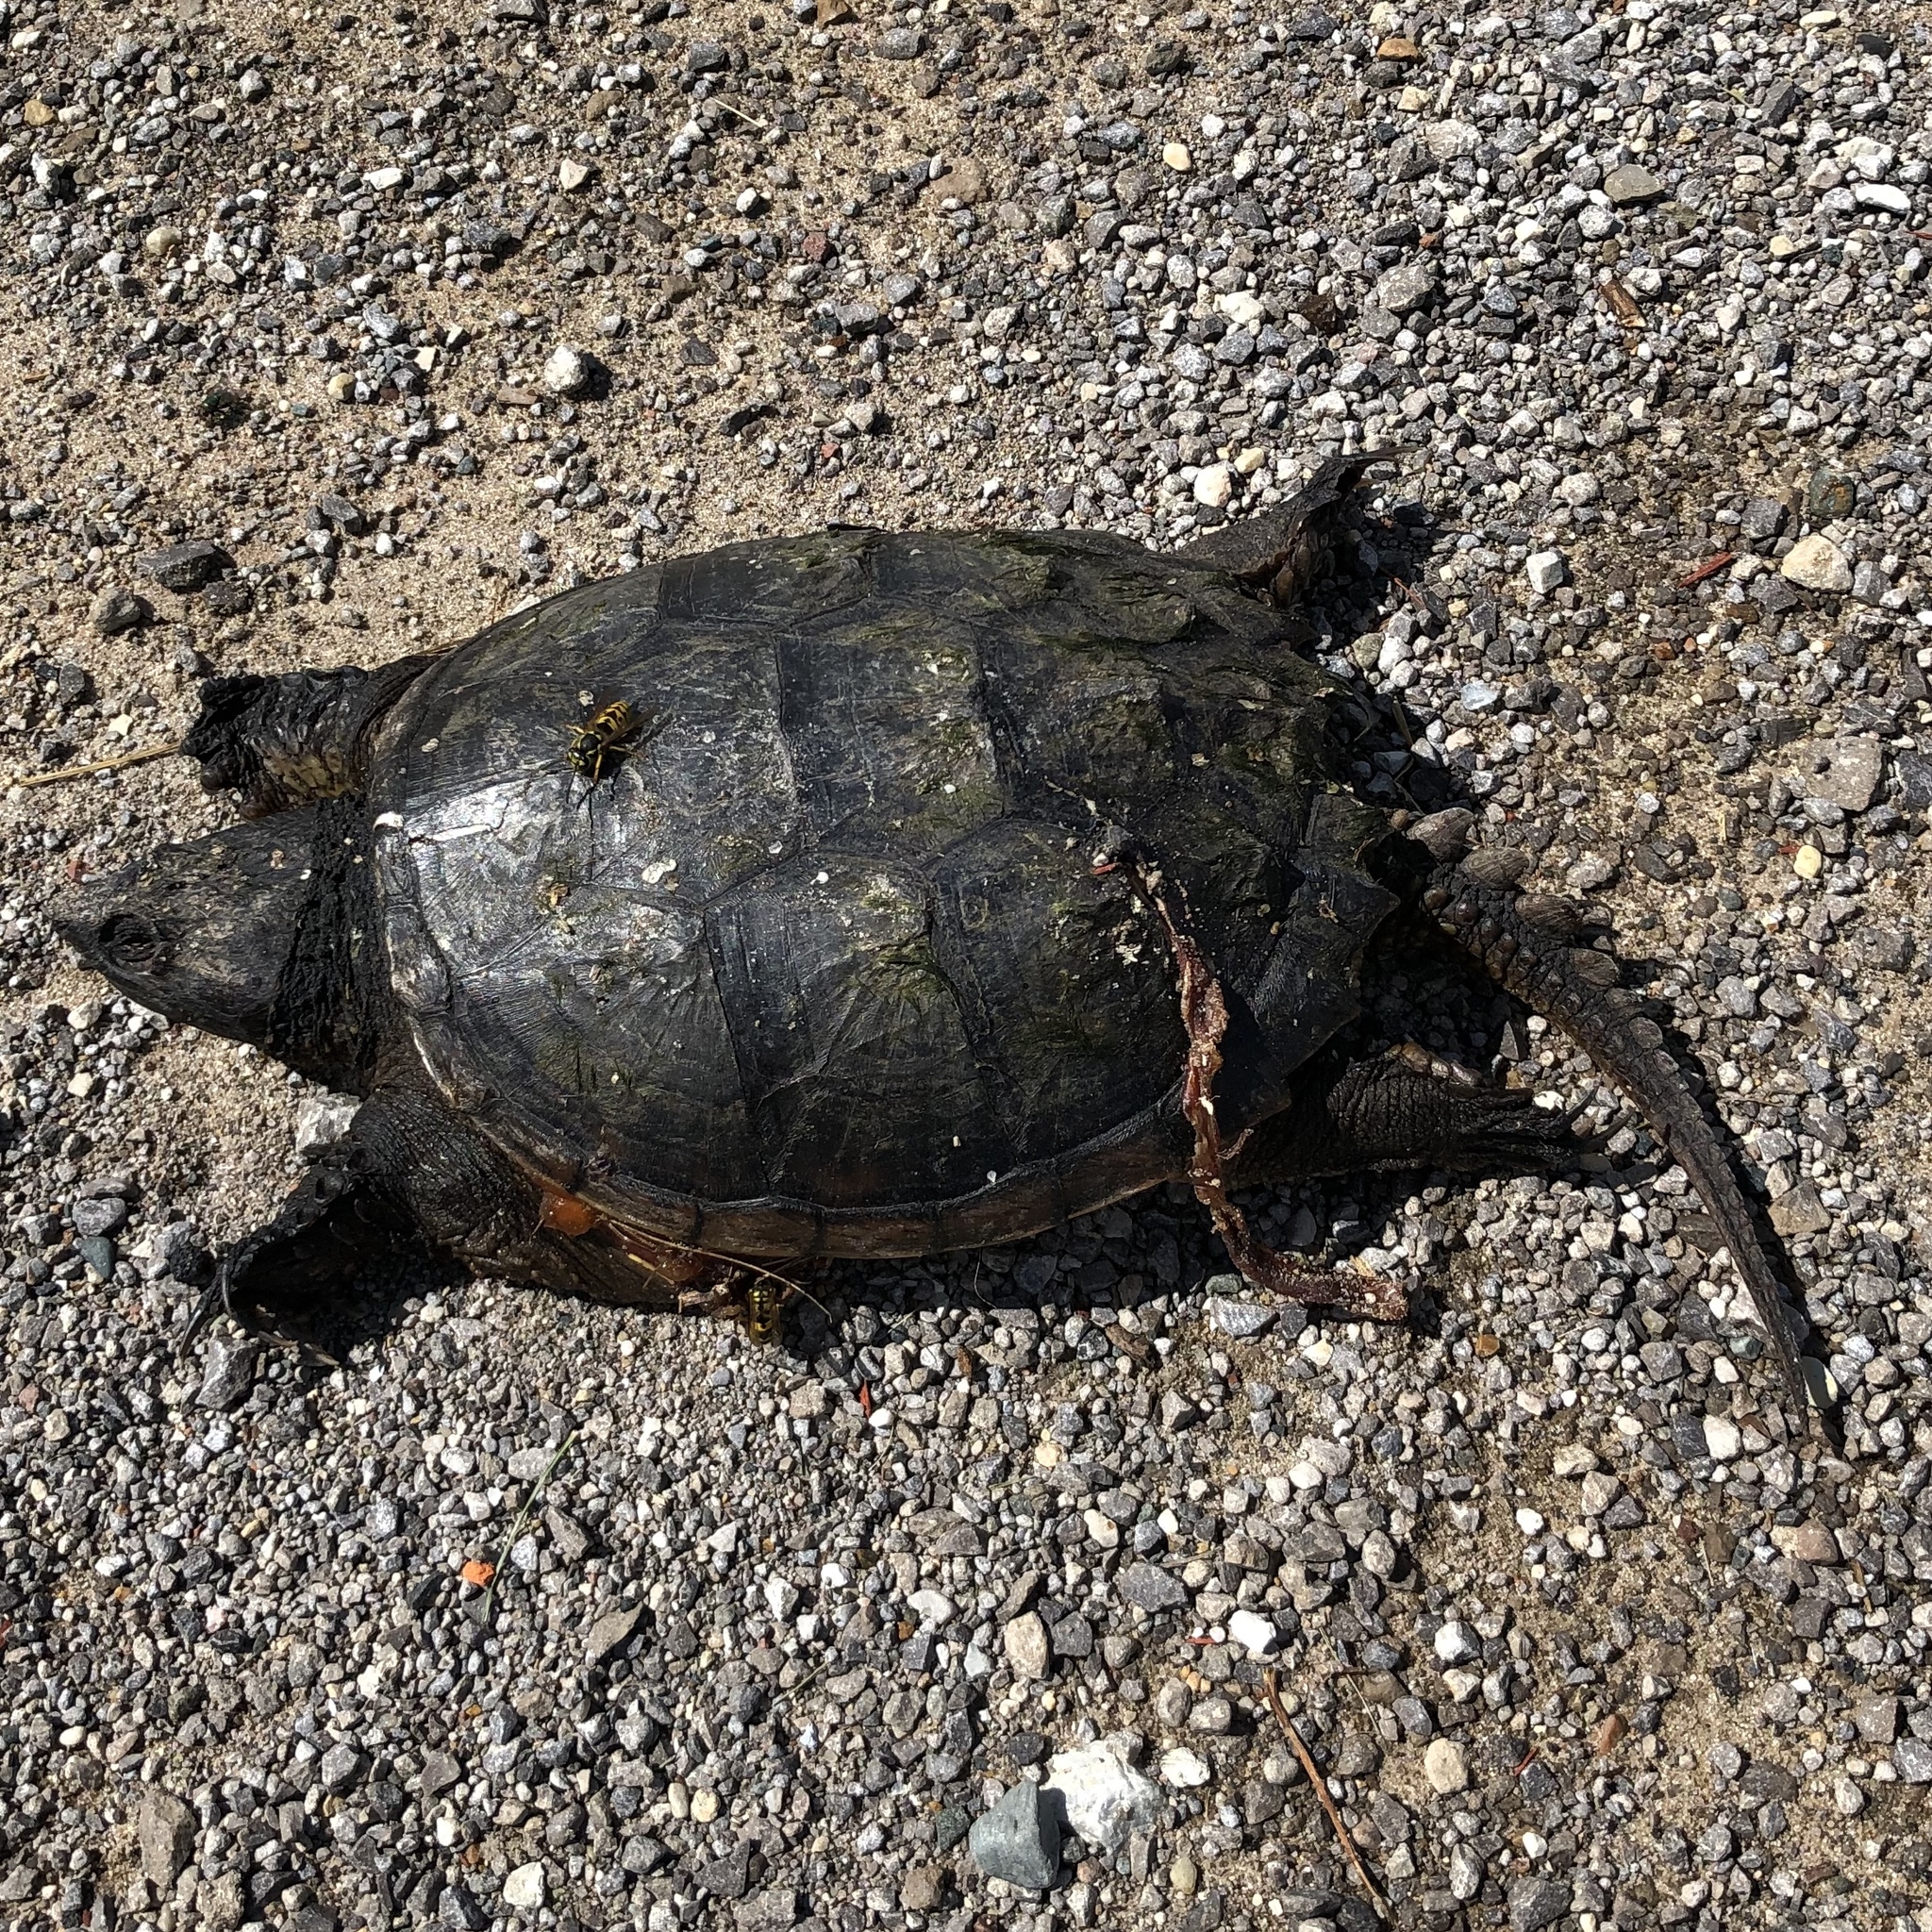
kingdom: Animalia
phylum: Chordata
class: Testudines
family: Chelydridae
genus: Chelydra
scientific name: Chelydra serpentina
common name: Common snapping turtle
